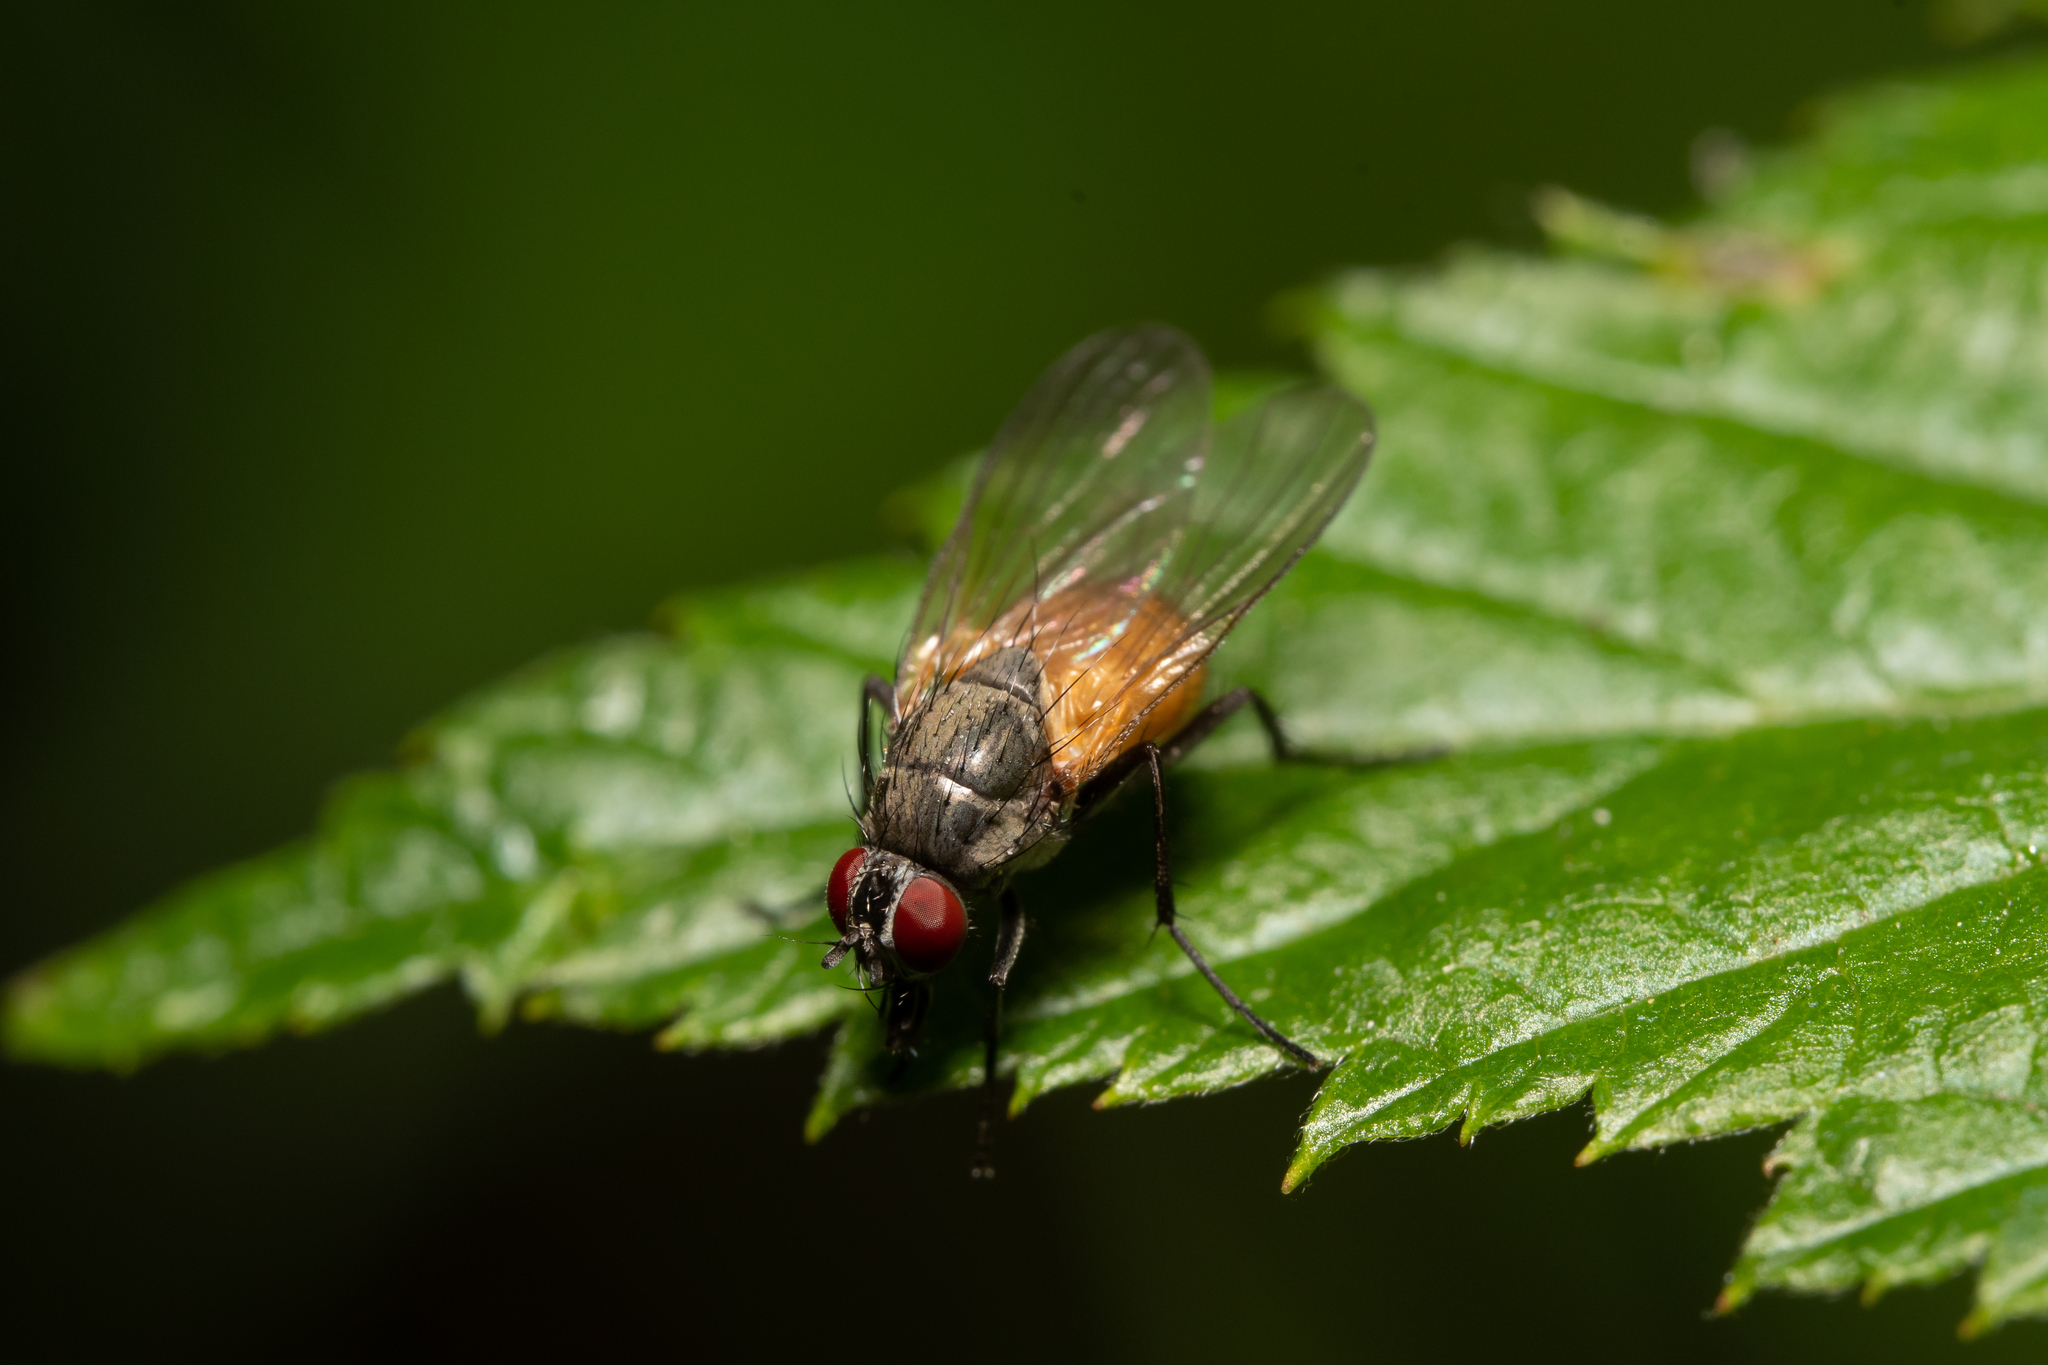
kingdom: Animalia
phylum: Arthropoda
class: Insecta
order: Diptera
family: Muscidae
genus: Thricops
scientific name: Thricops semicinereus
